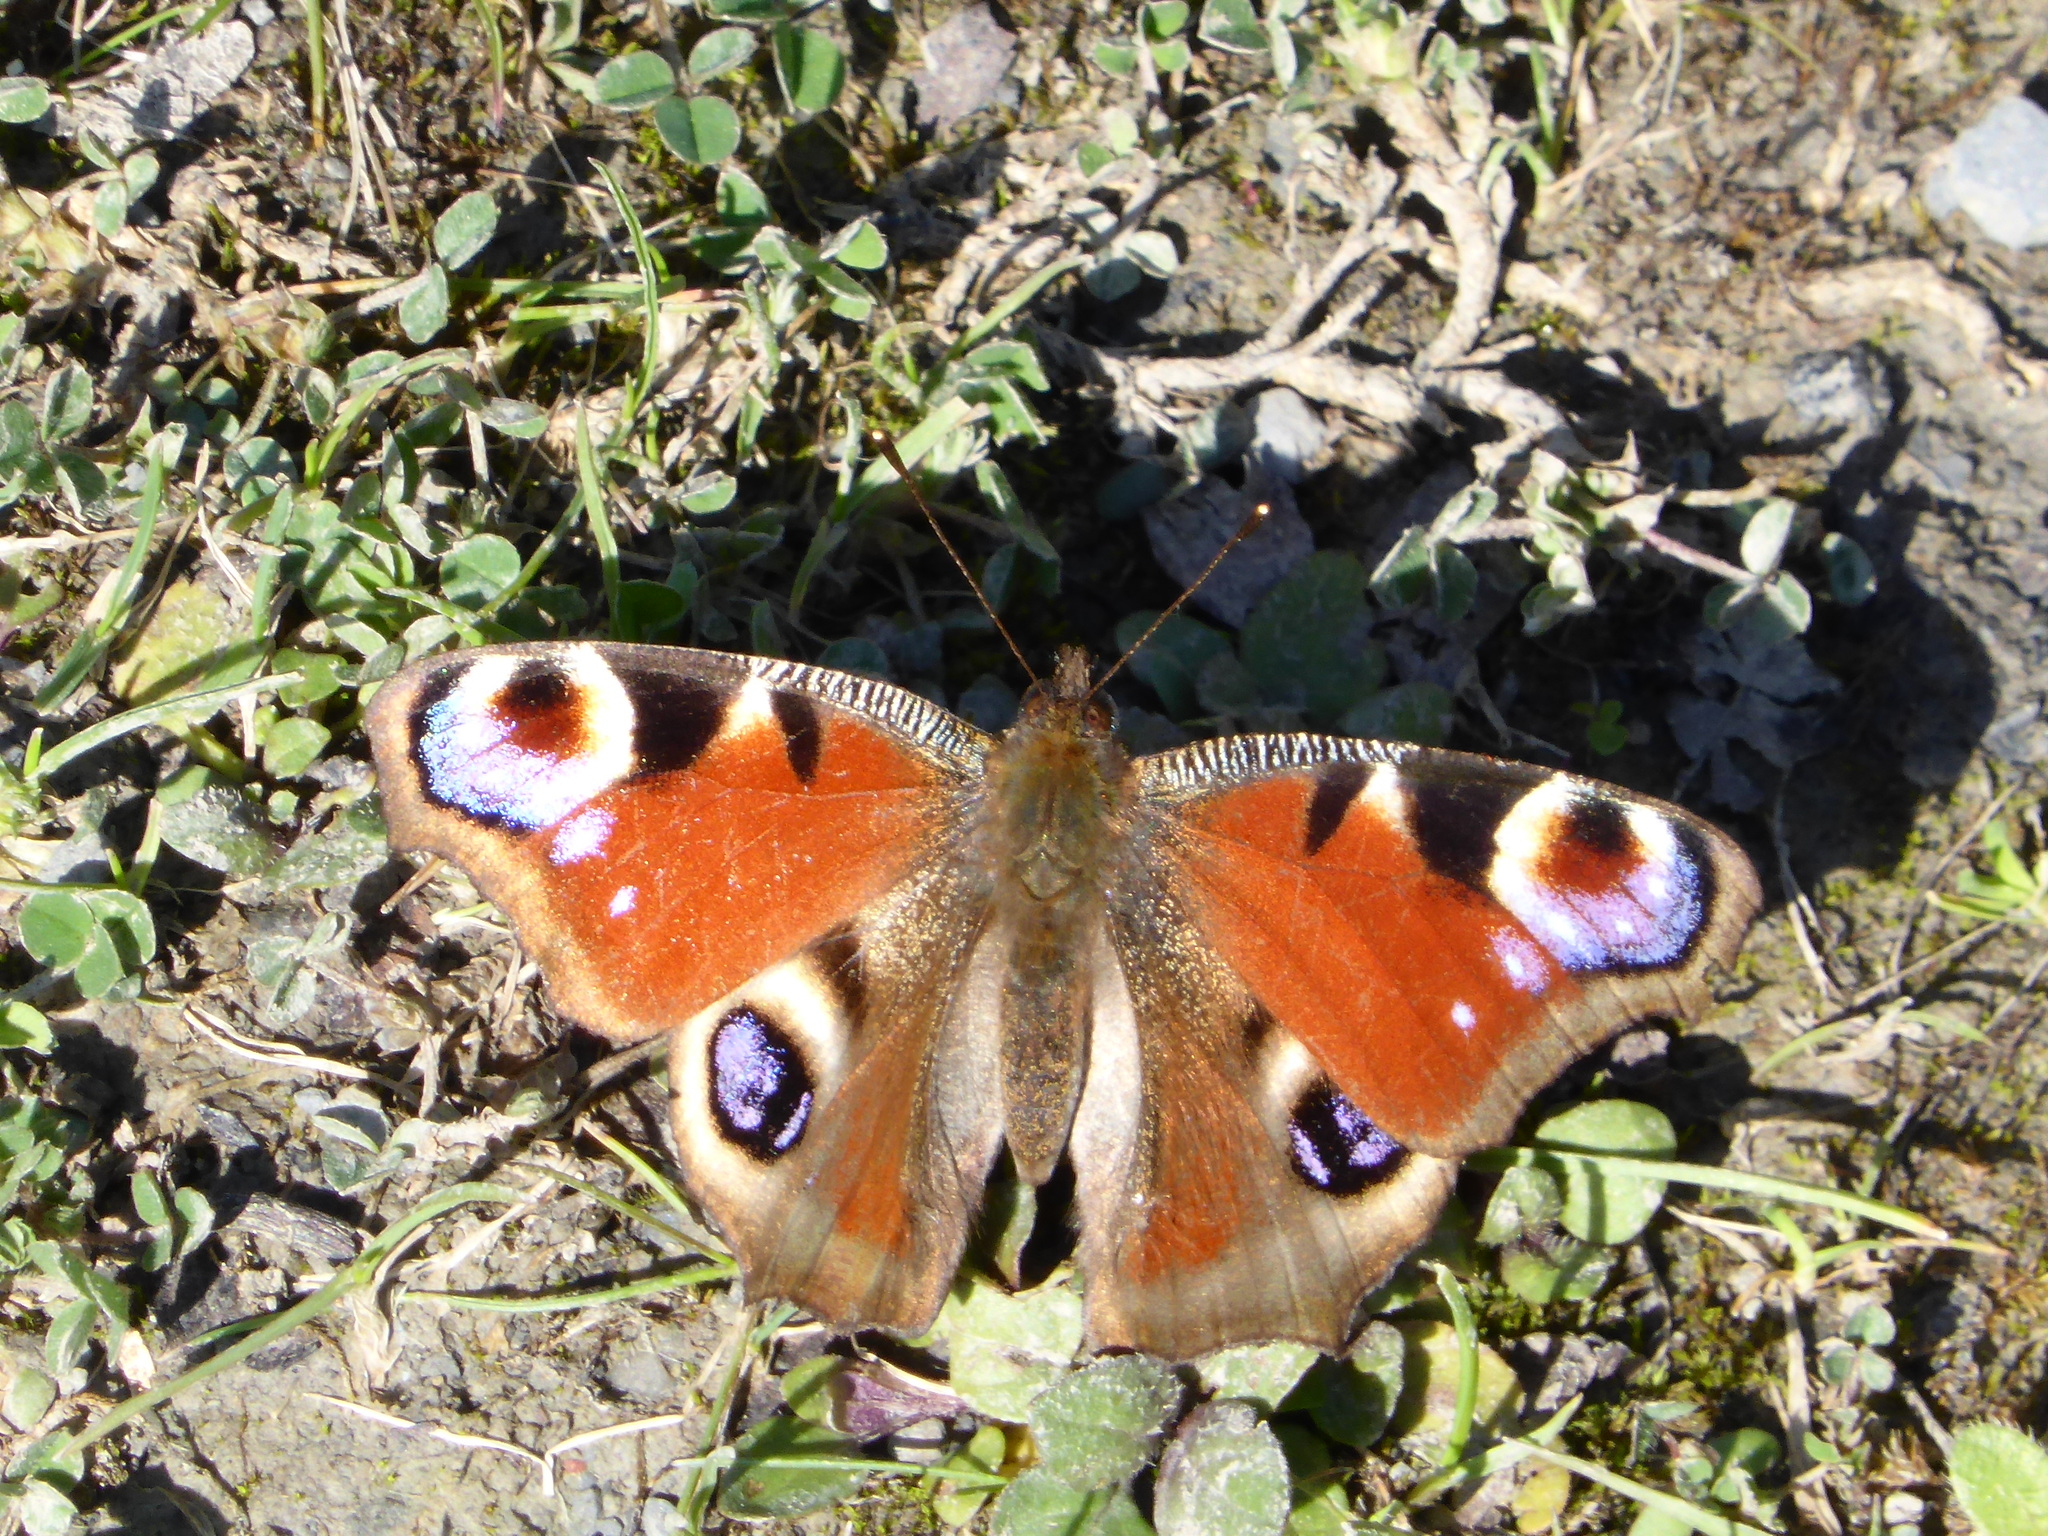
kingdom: Animalia
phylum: Arthropoda
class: Insecta
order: Lepidoptera
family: Nymphalidae
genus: Aglais
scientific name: Aglais io
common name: Peacock
